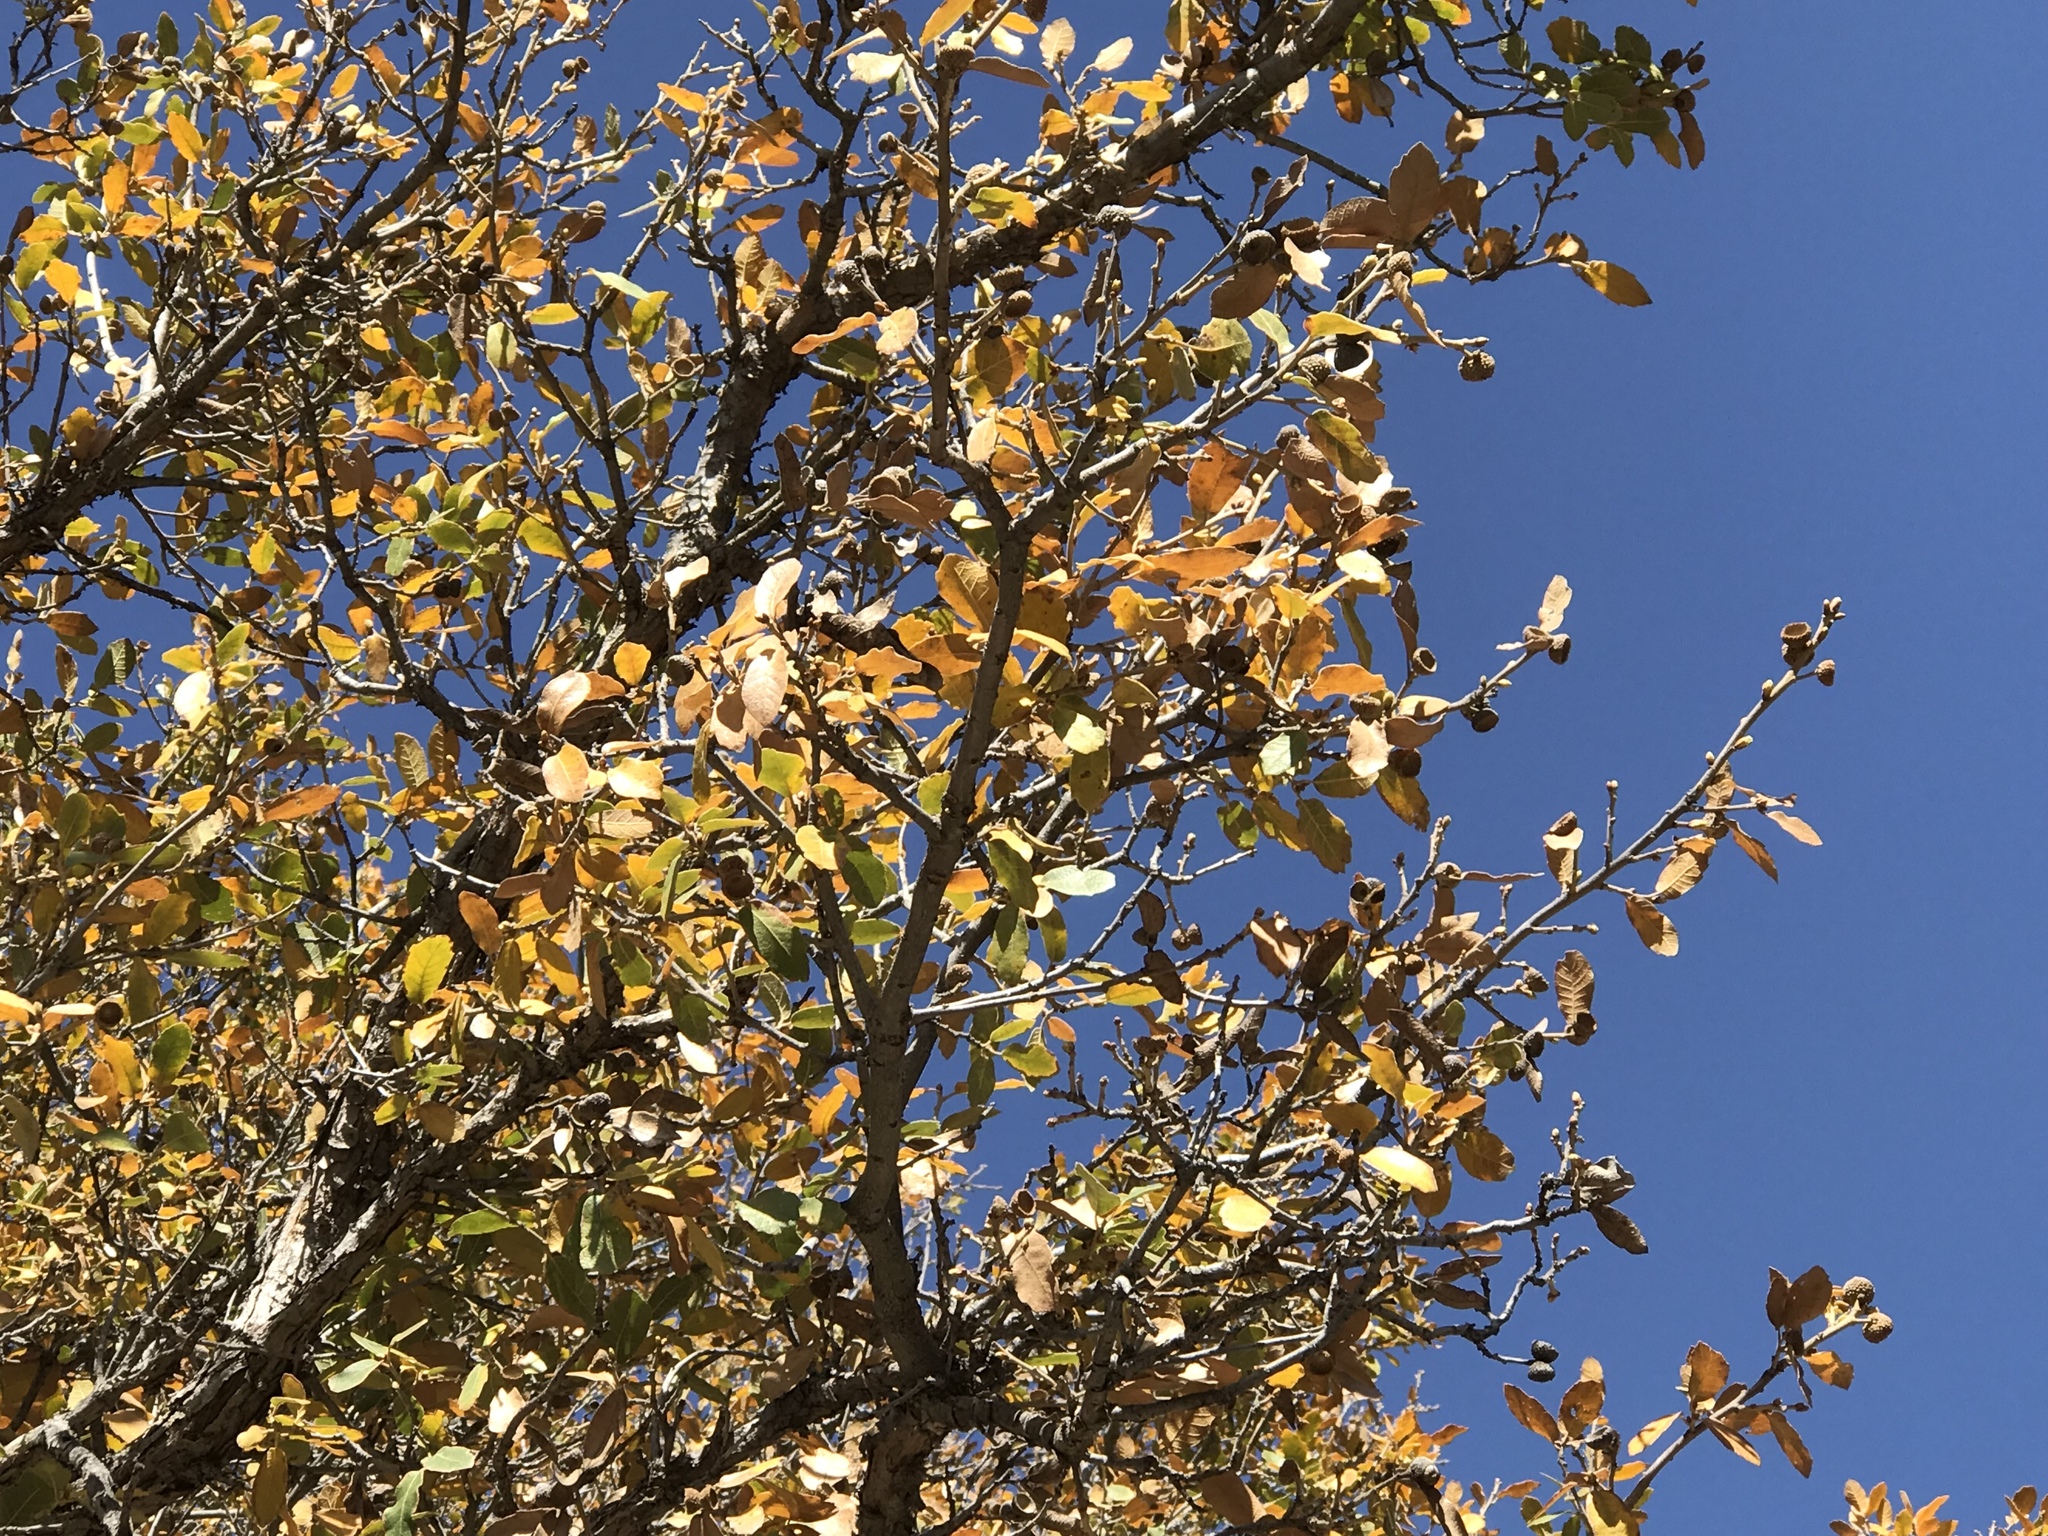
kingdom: Plantae
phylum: Tracheophyta
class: Magnoliopsida
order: Fagales
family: Fagaceae
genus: Quercus
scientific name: Quercus arizonica
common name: Arizona white oak
